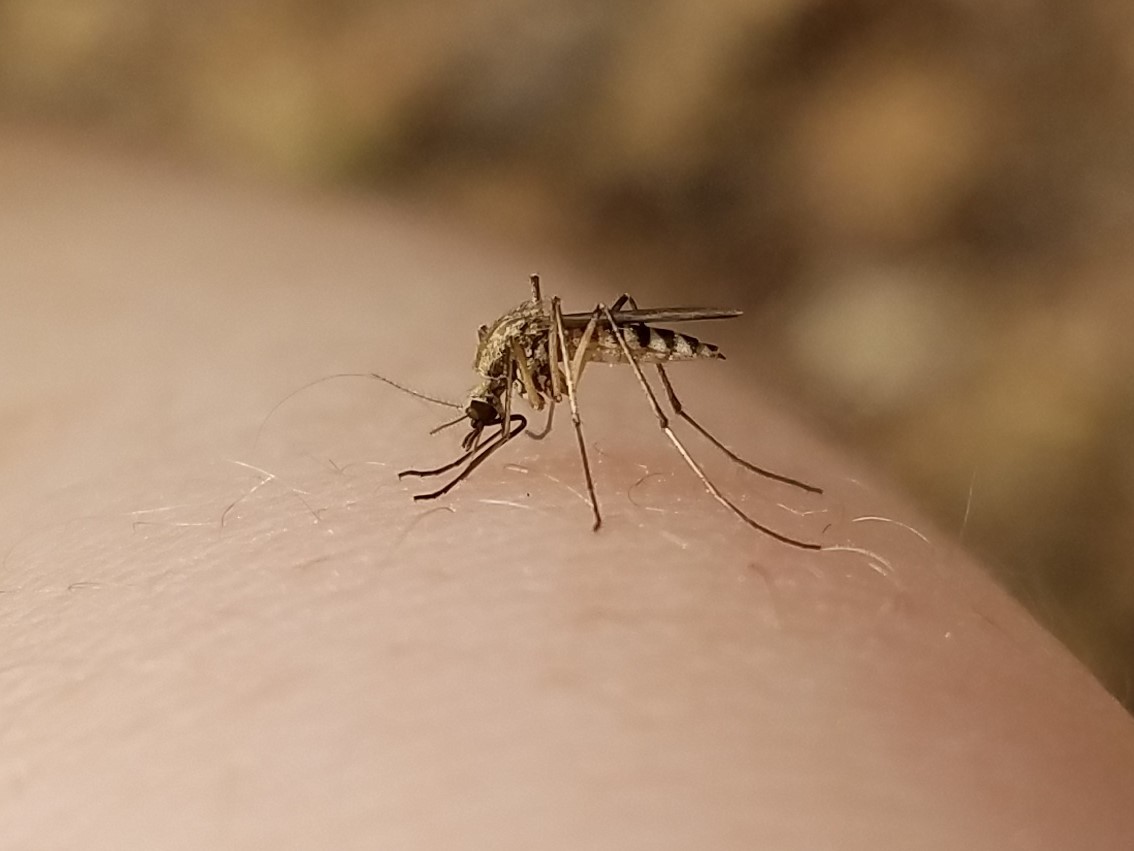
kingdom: Animalia
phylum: Arthropoda
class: Insecta
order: Diptera
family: Culicidae
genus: Aedes
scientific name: Aedes sticticus
